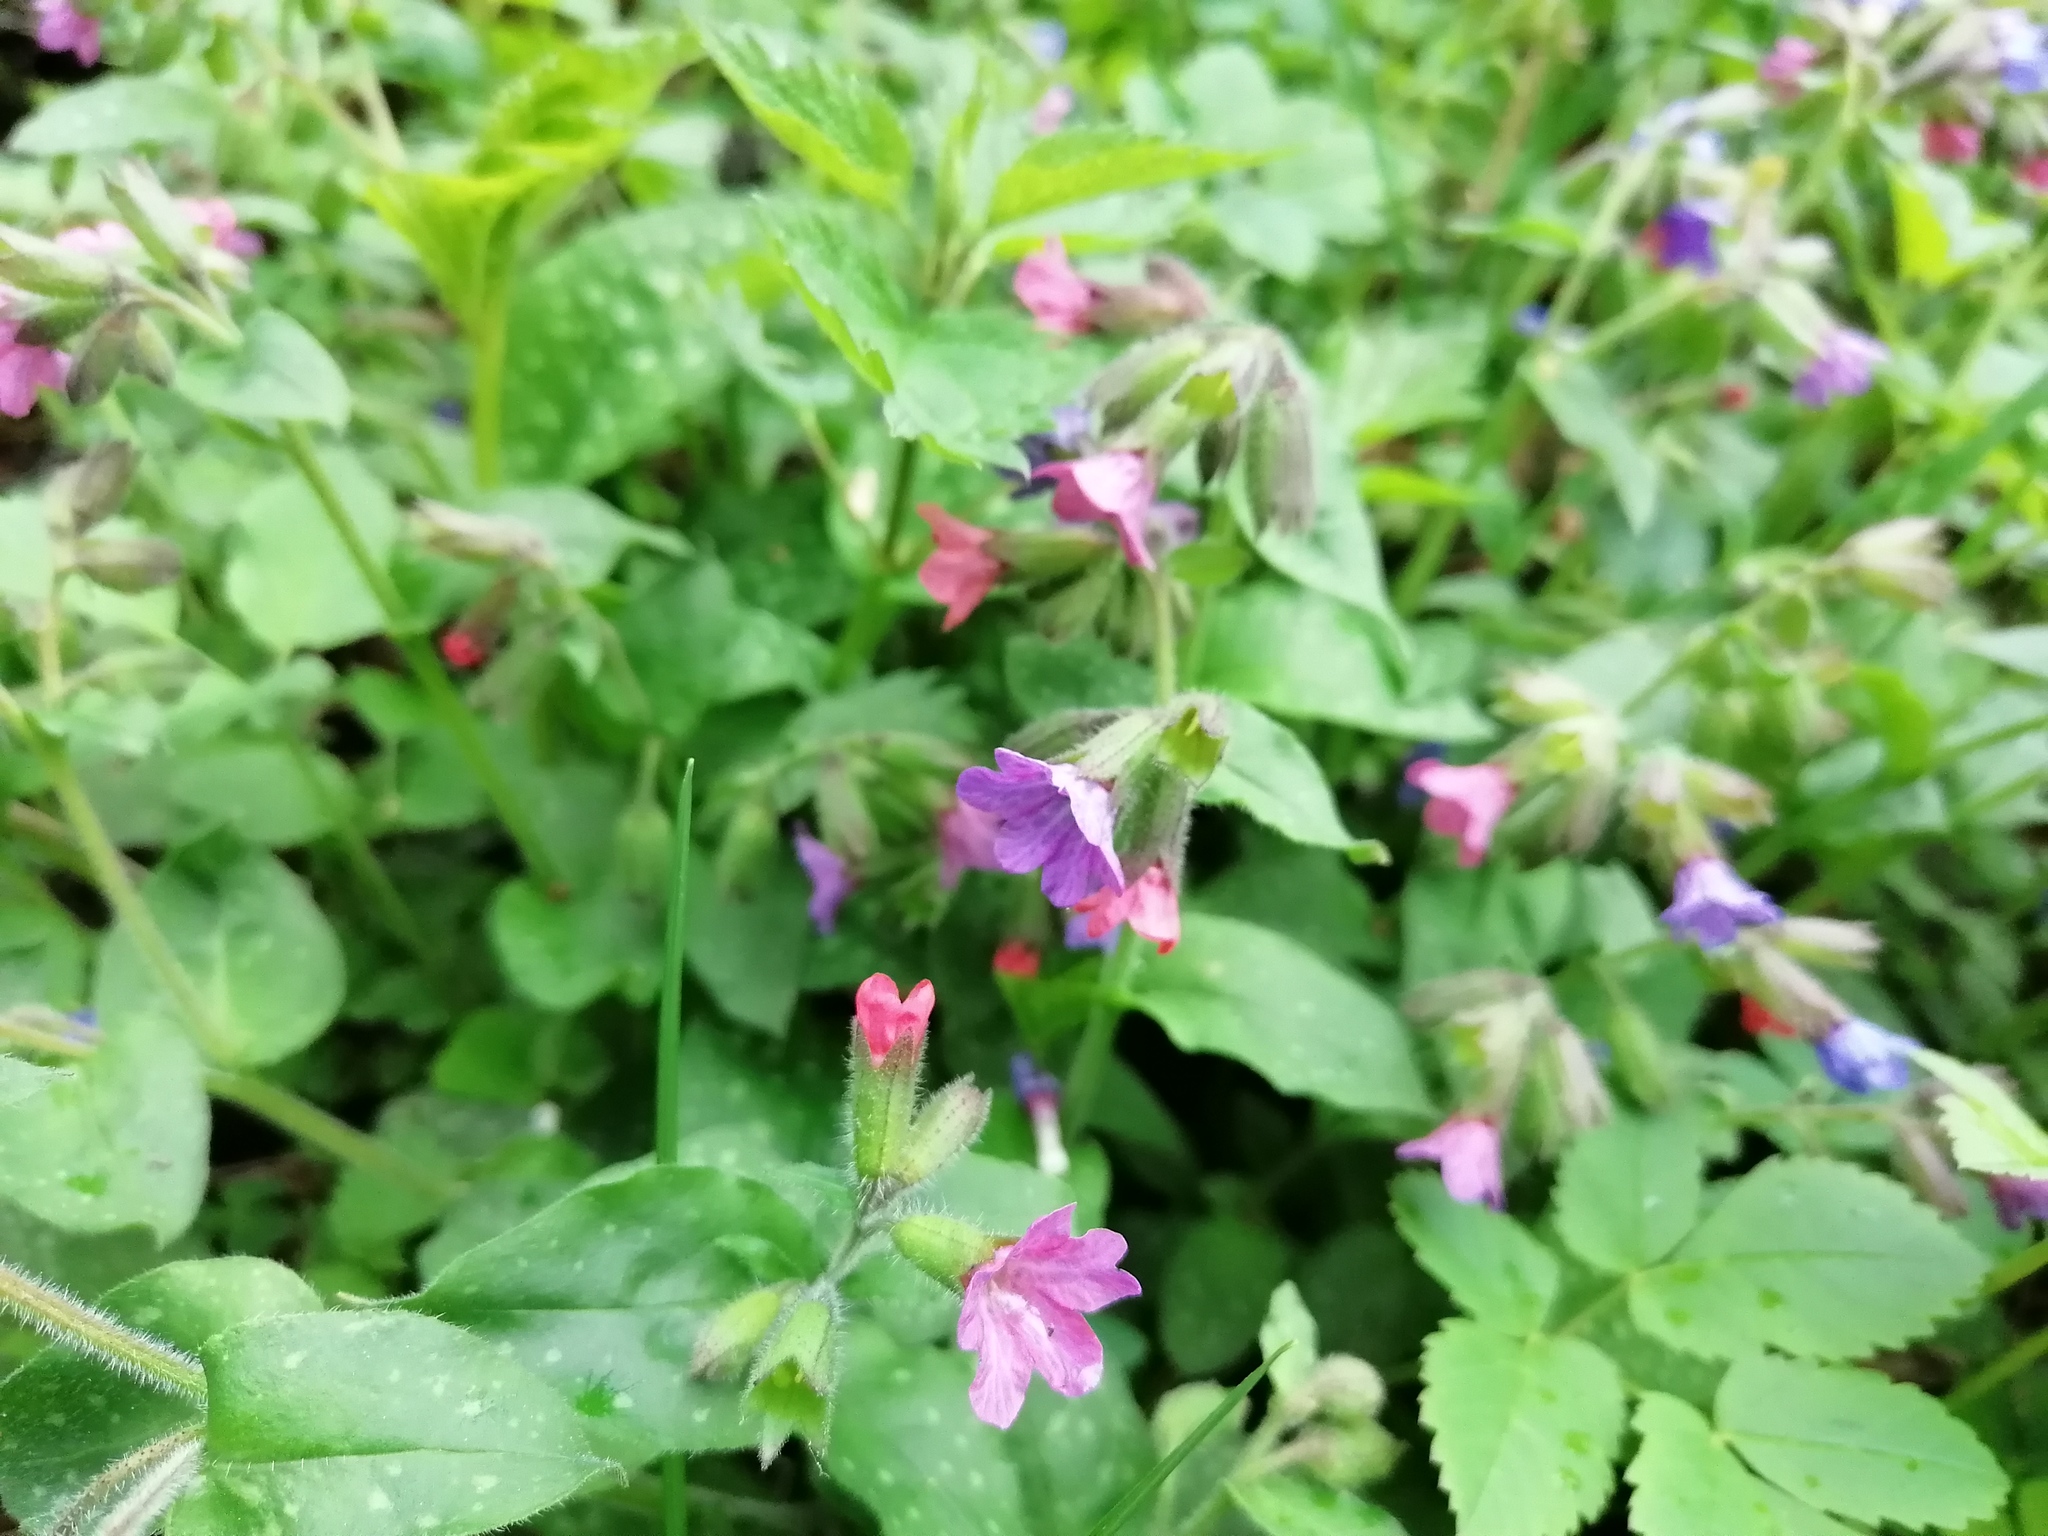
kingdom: Plantae
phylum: Tracheophyta
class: Magnoliopsida
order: Boraginales
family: Boraginaceae
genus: Pulmonaria
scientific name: Pulmonaria officinalis
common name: Lungwort
